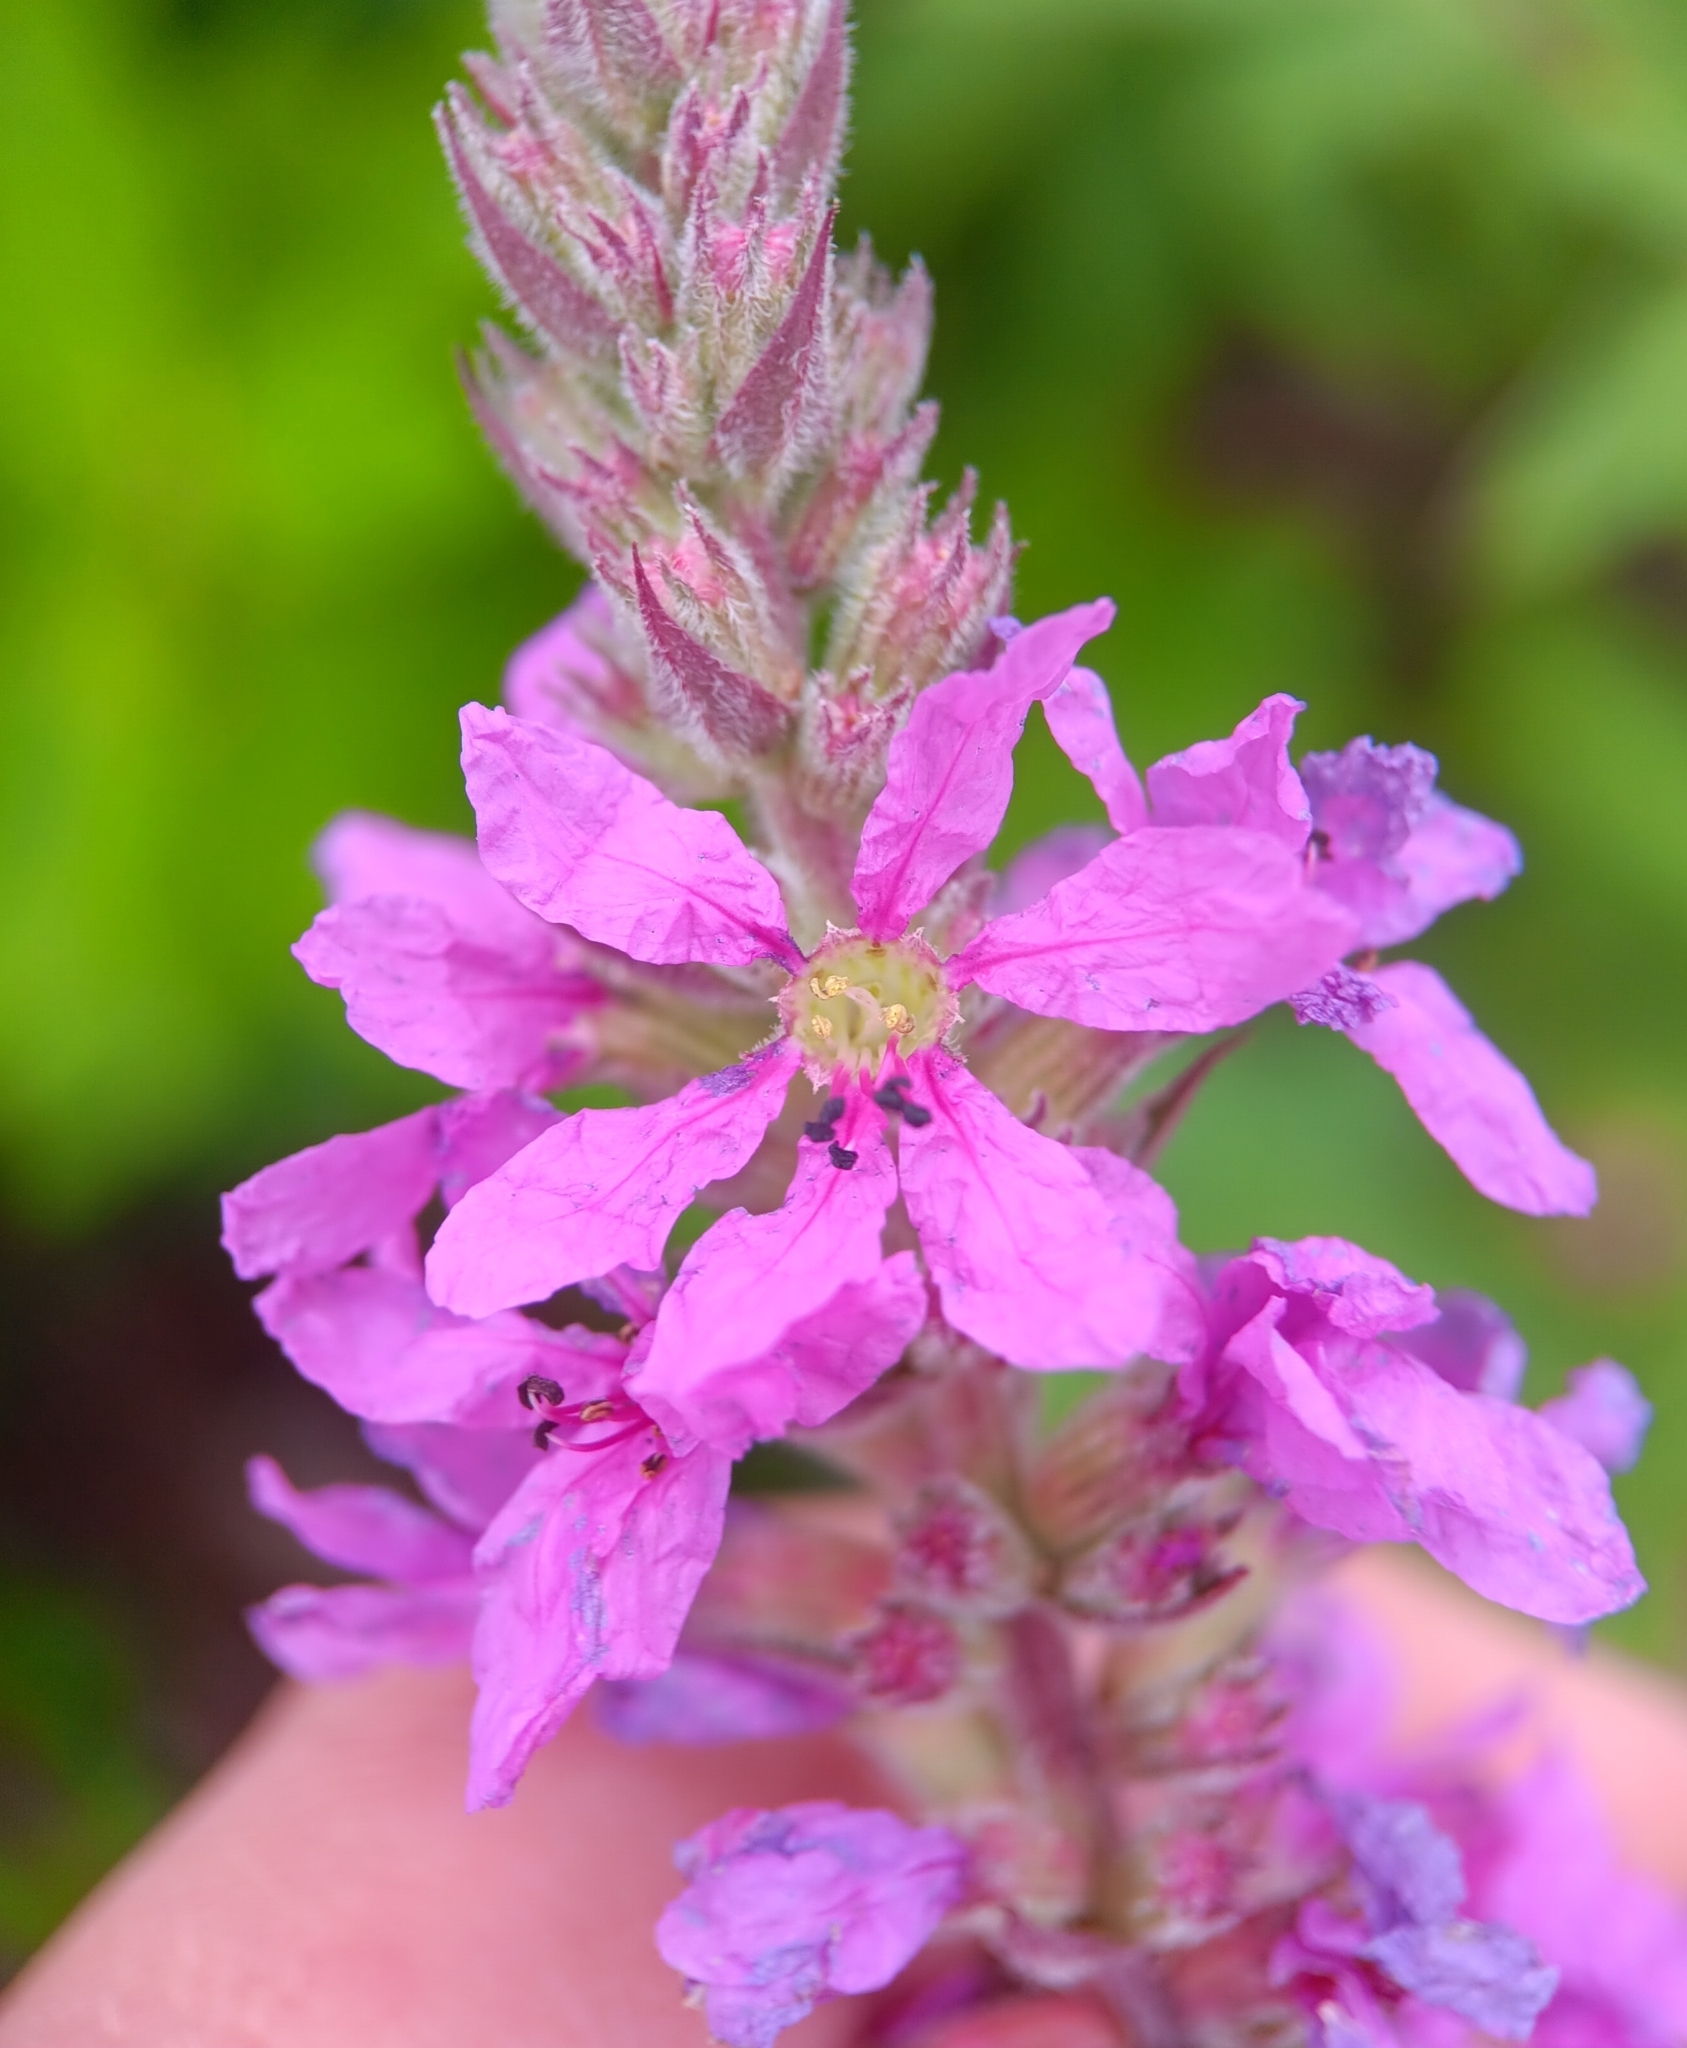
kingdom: Plantae
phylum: Tracheophyta
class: Magnoliopsida
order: Myrtales
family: Lythraceae
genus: Lythrum
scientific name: Lythrum salicaria
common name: Purple loosestrife
